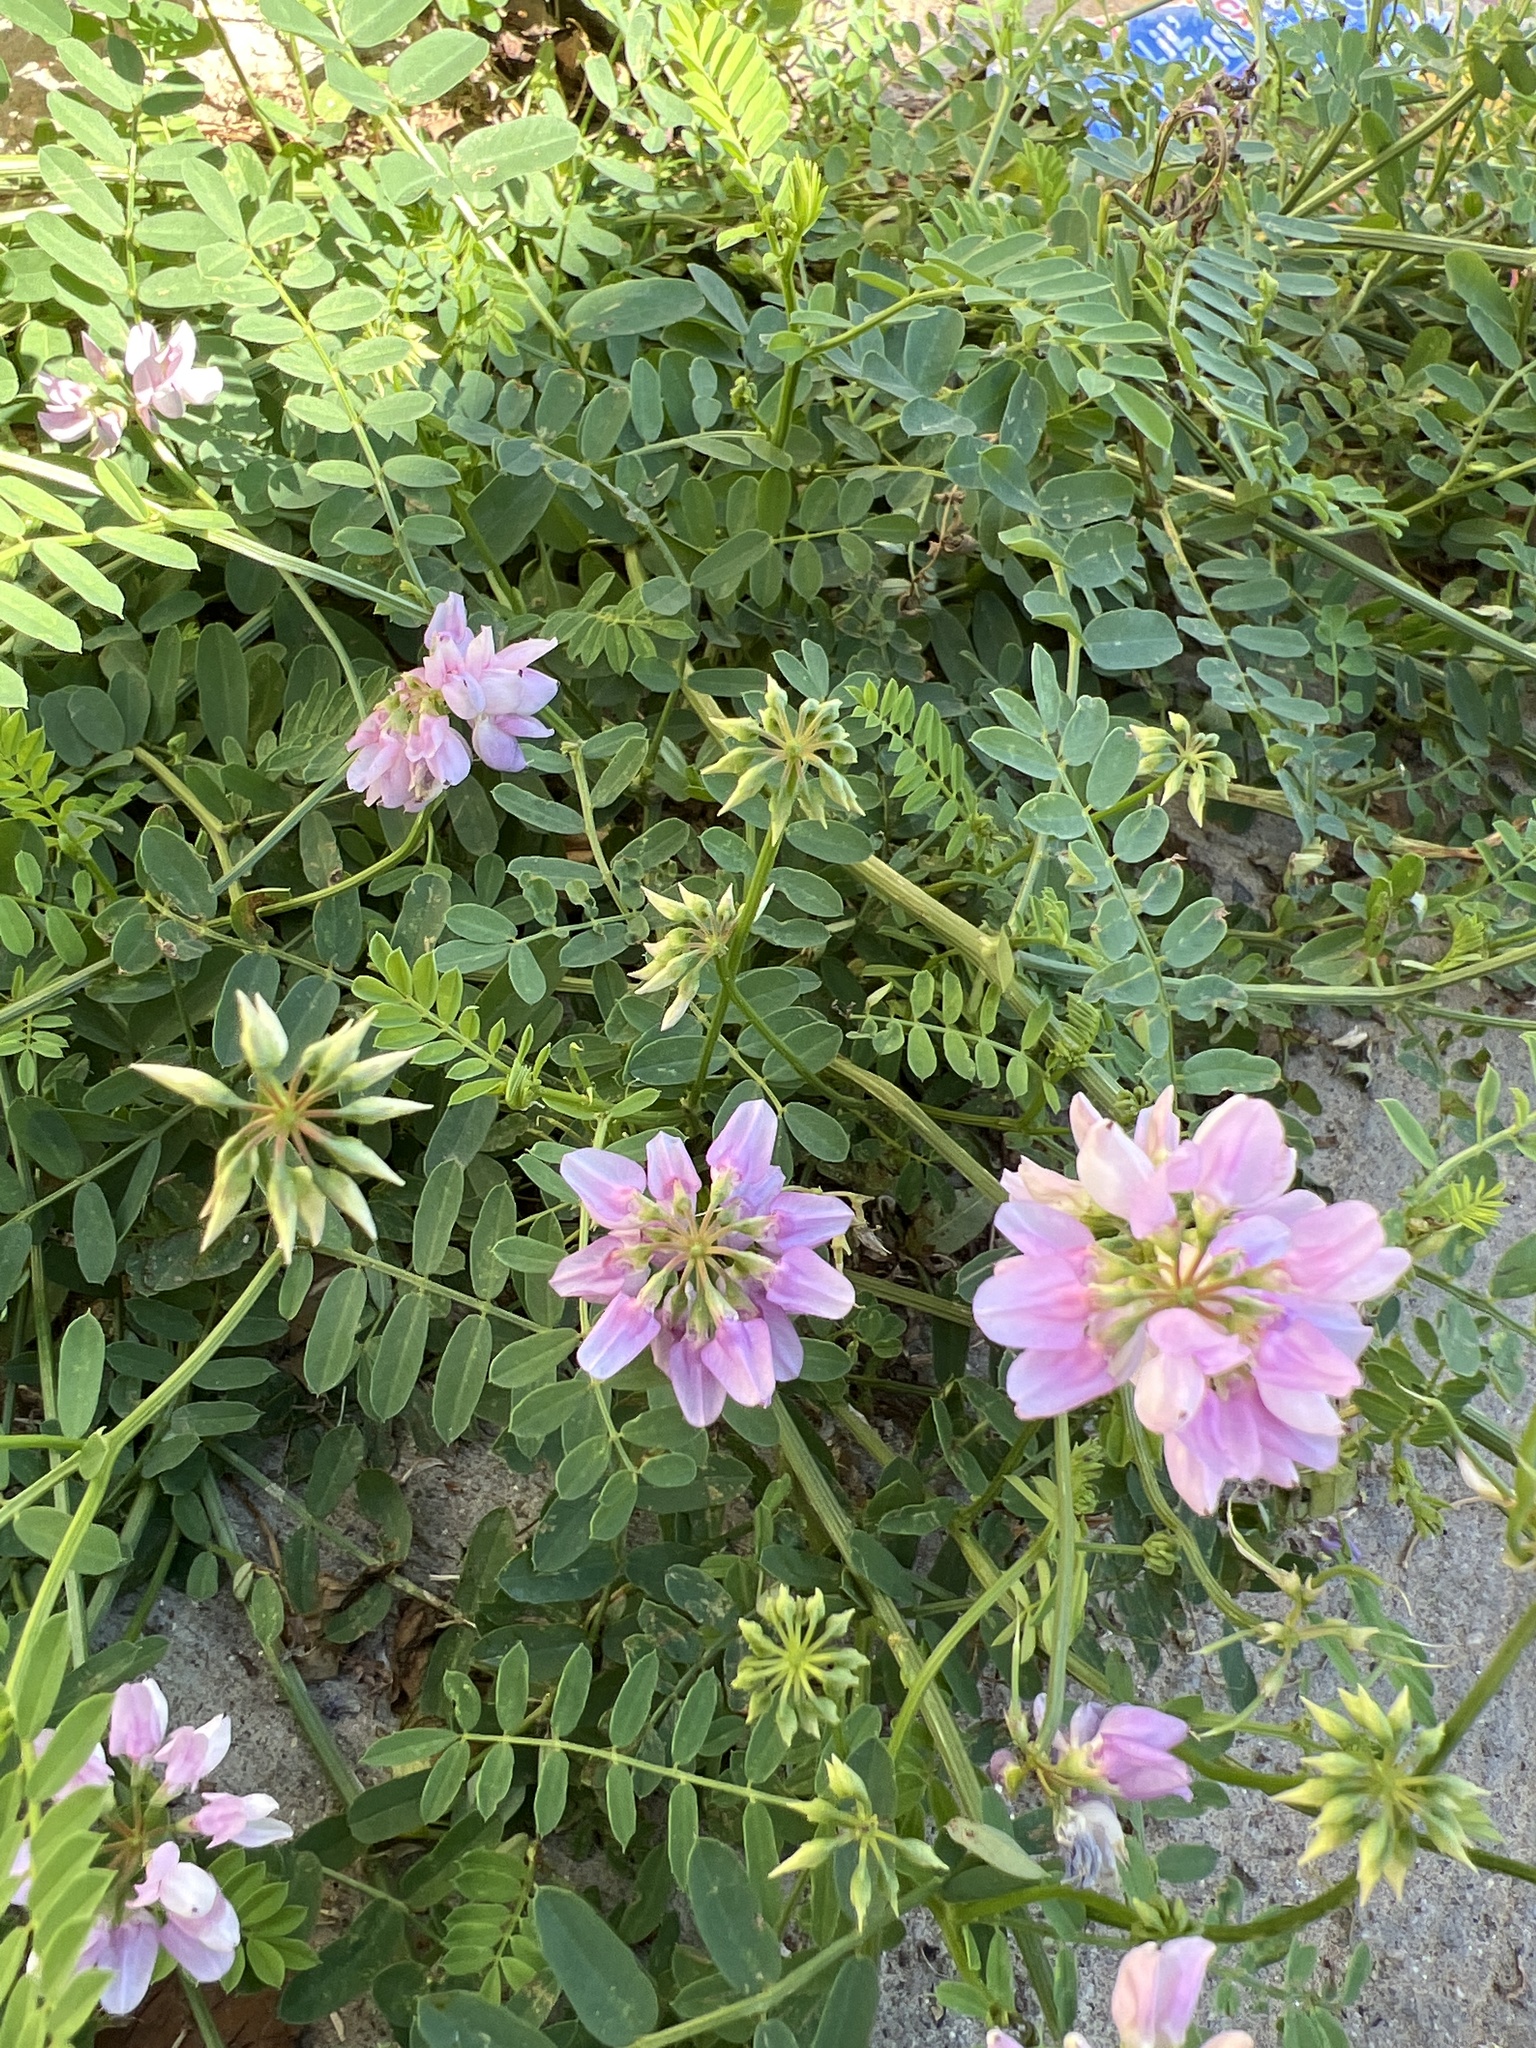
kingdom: Plantae
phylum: Tracheophyta
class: Magnoliopsida
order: Fabales
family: Fabaceae
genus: Coronilla
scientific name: Coronilla varia
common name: Crownvetch
